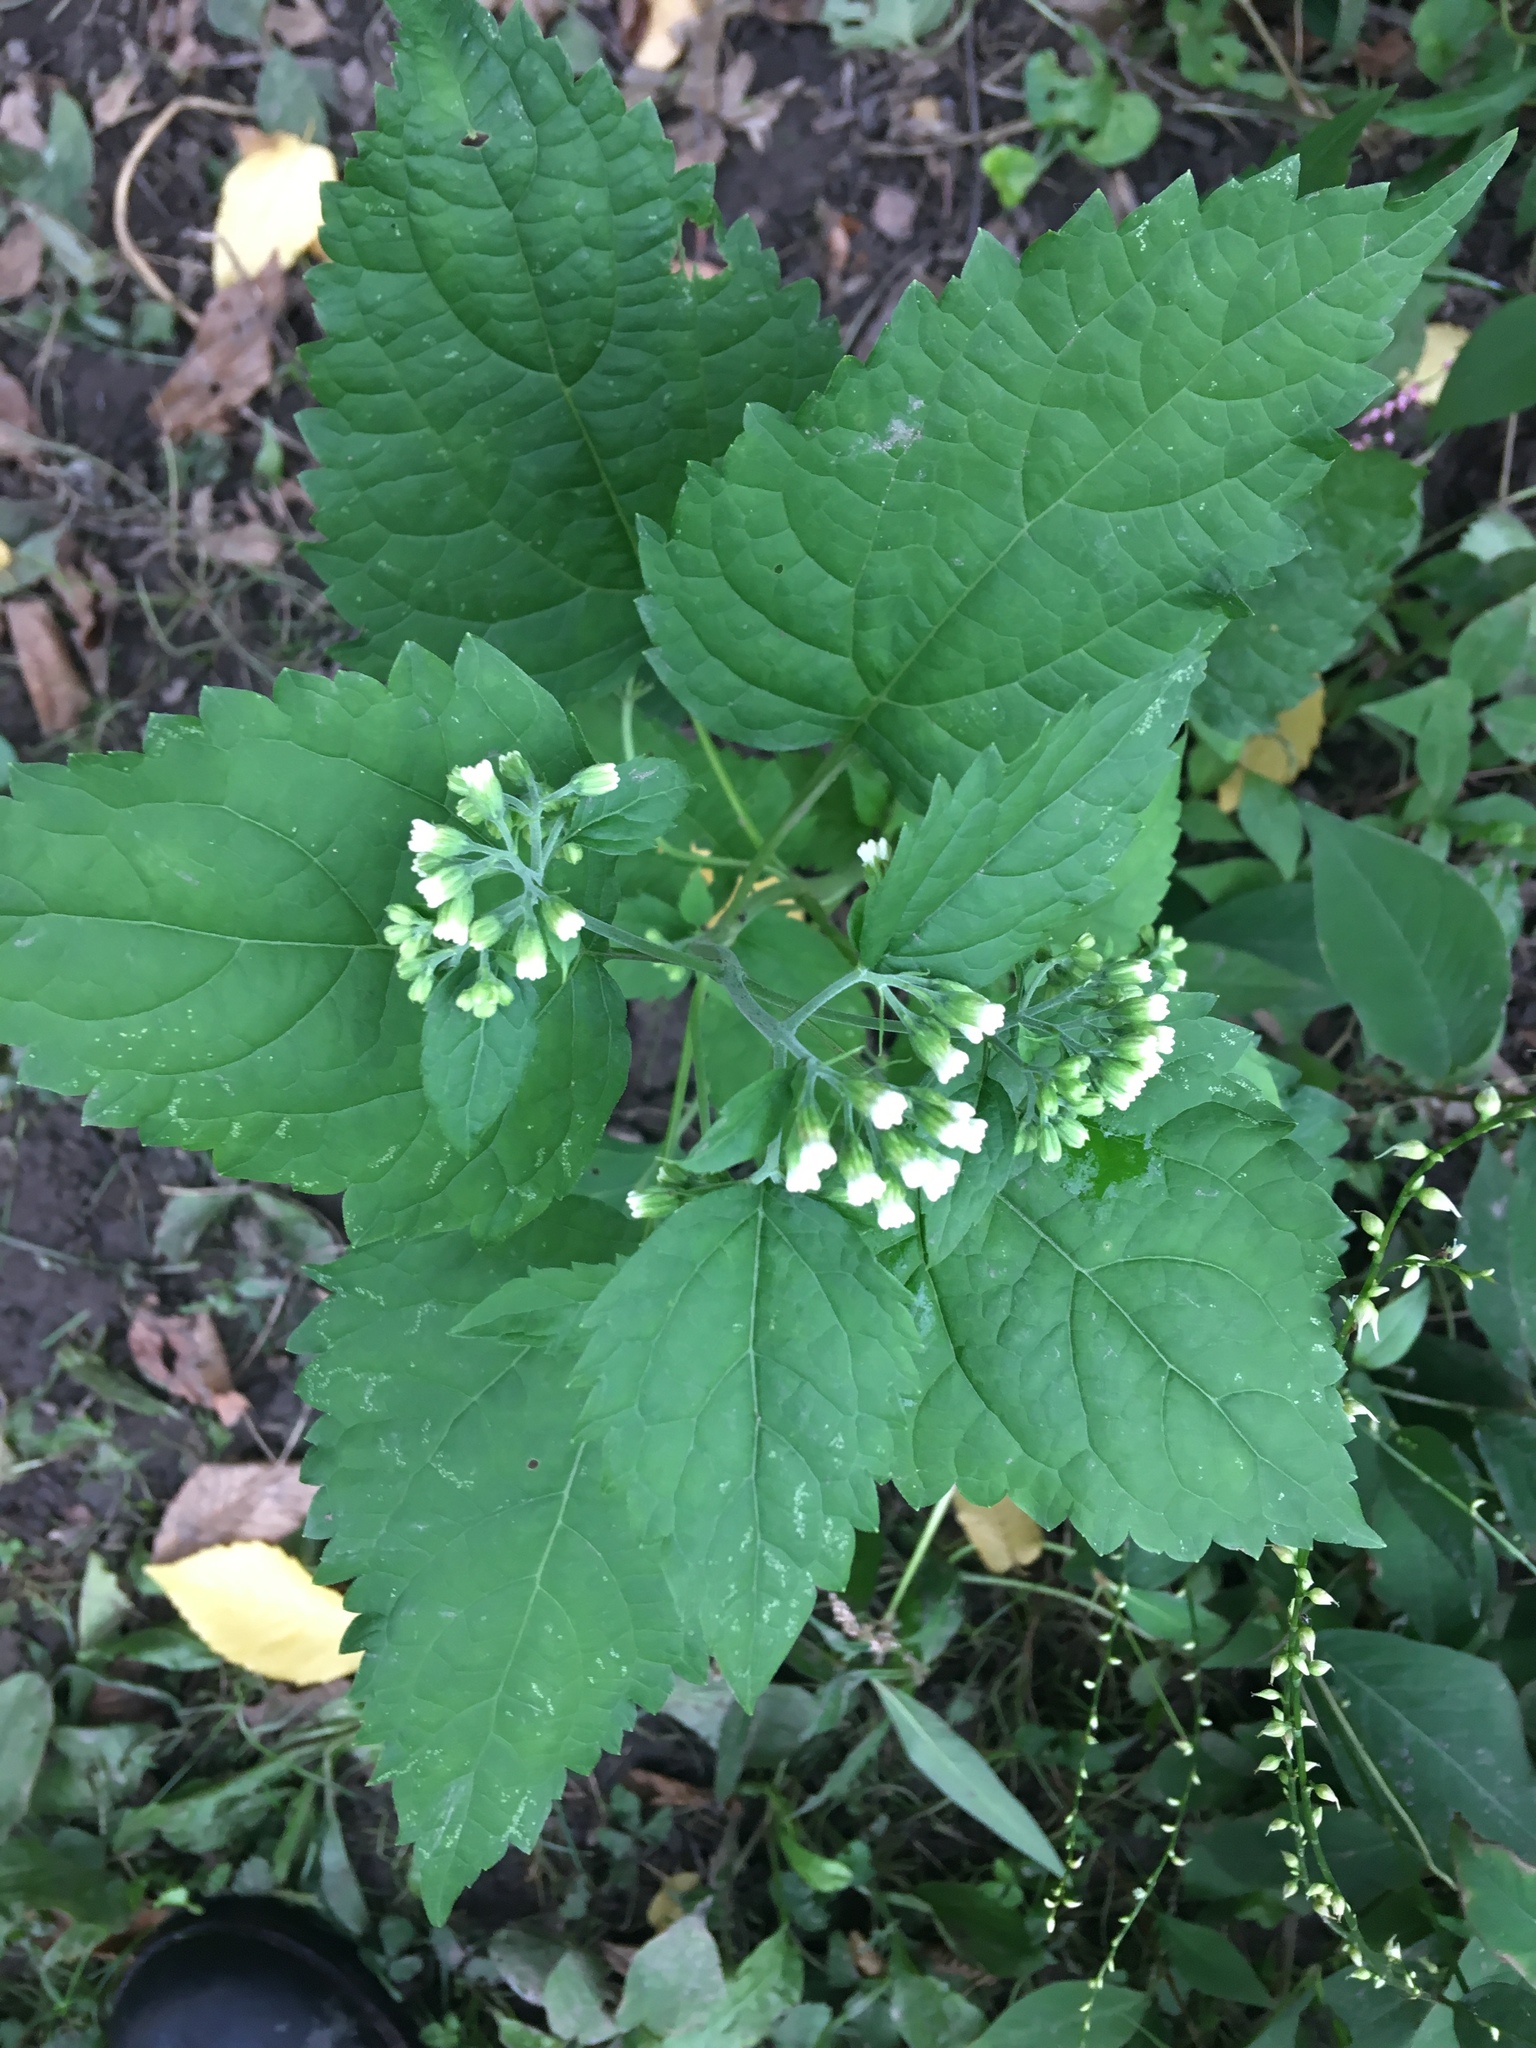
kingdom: Plantae
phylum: Tracheophyta
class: Magnoliopsida
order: Asterales
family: Asteraceae
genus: Ageratina
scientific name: Ageratina altissima
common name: White snakeroot
